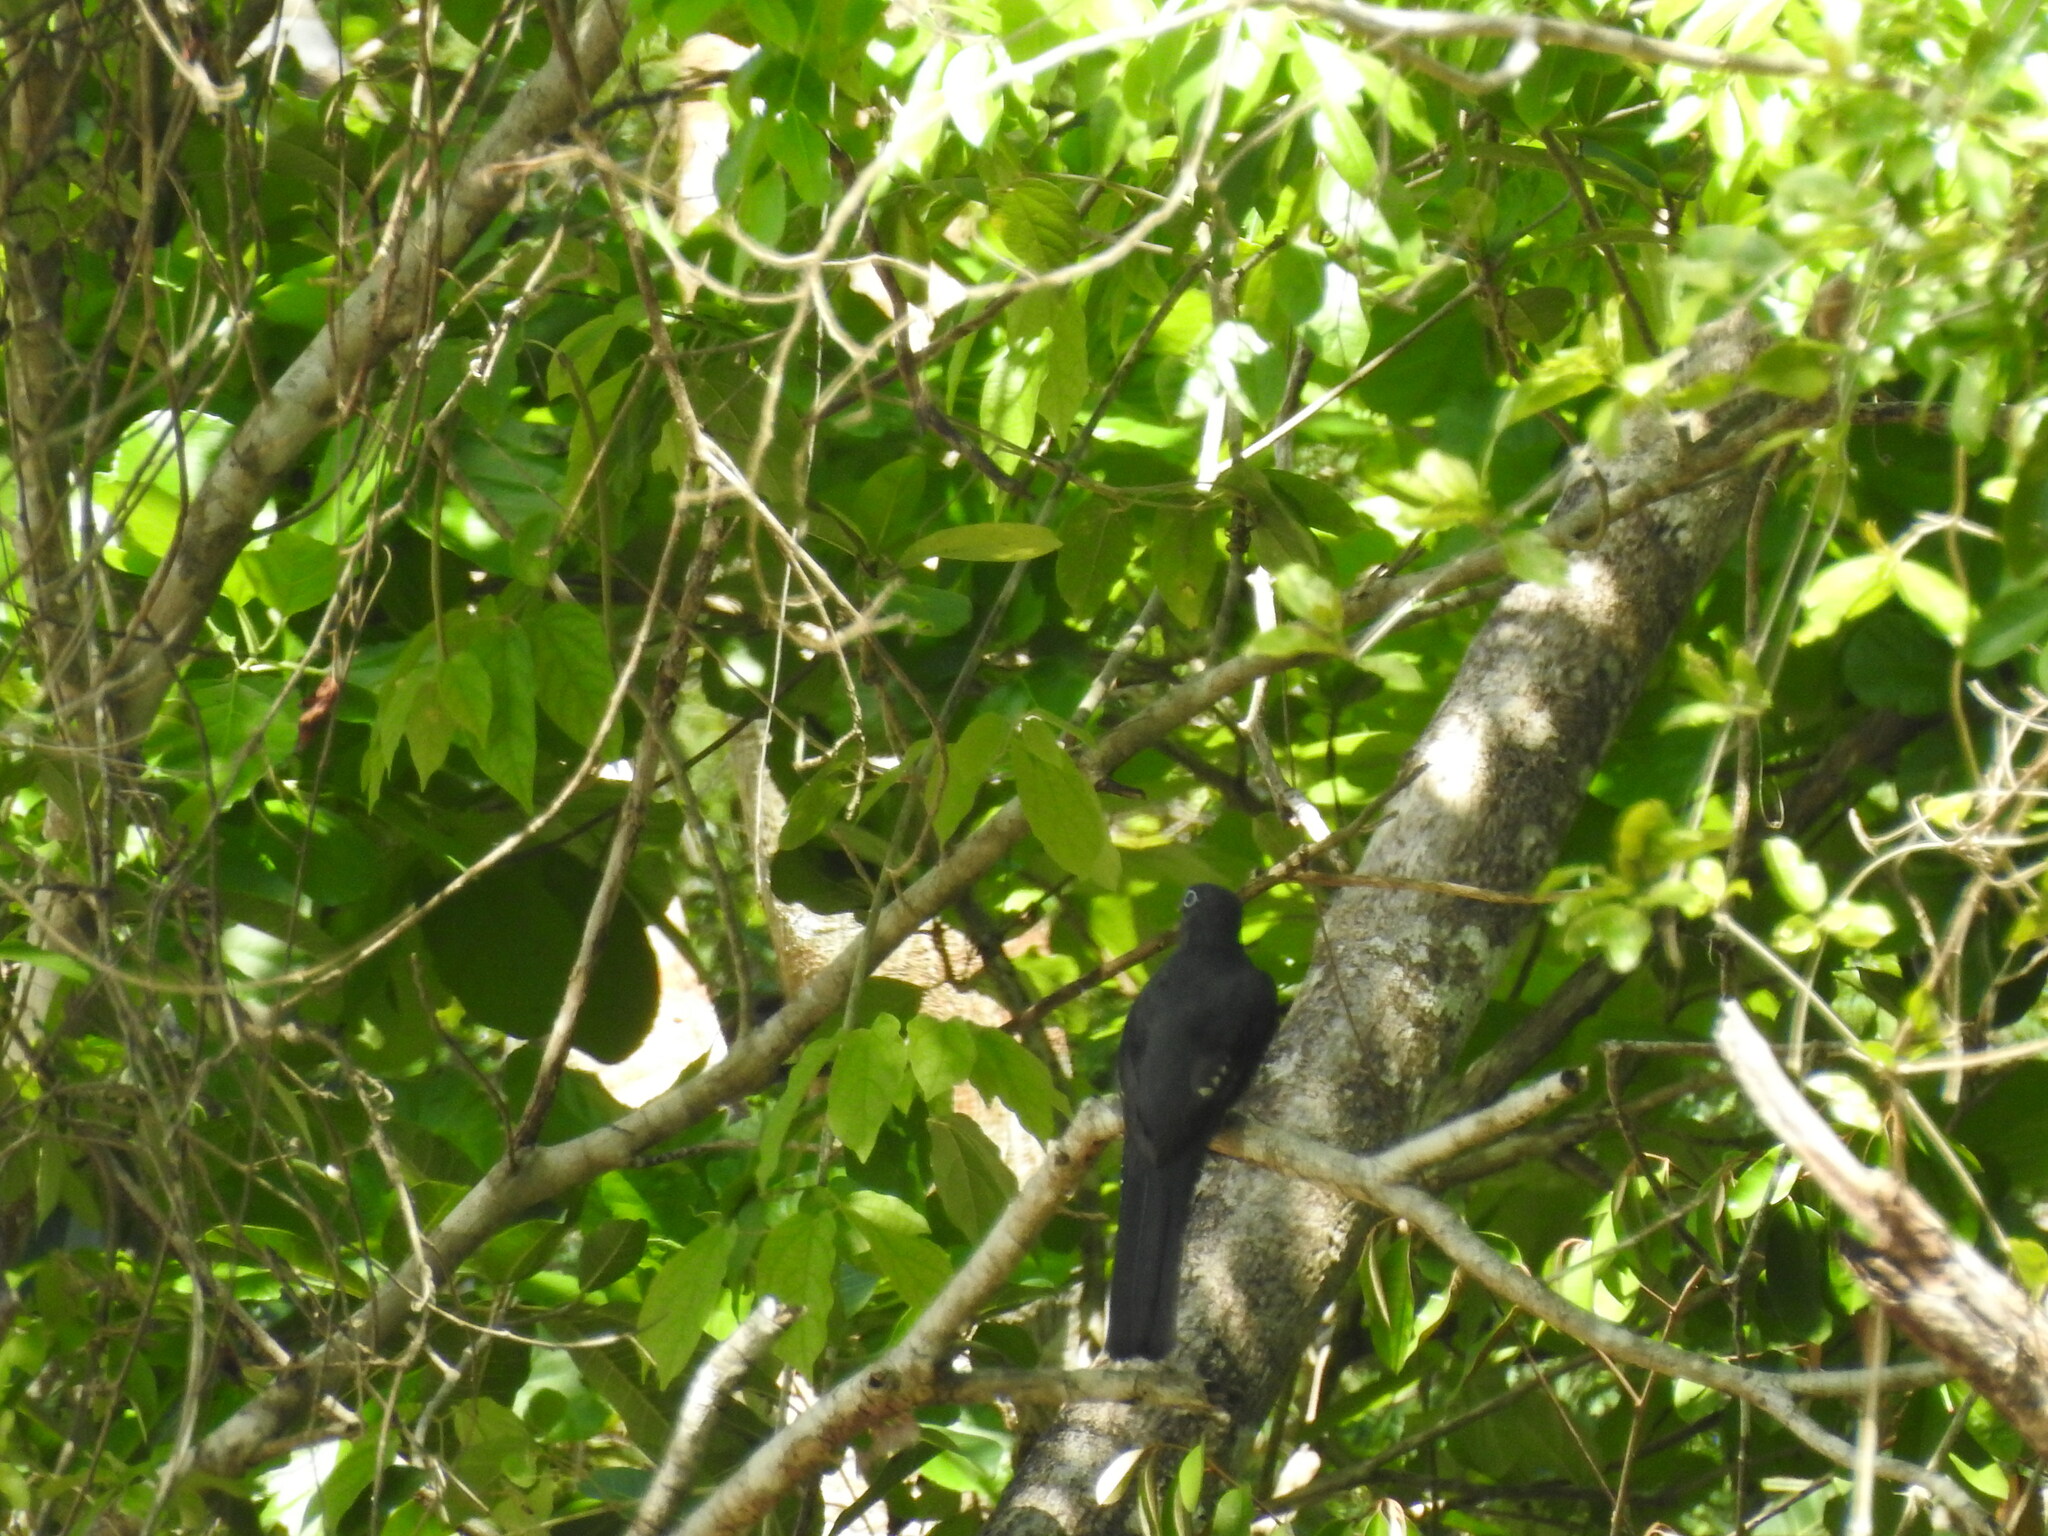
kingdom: Animalia
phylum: Chordata
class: Aves
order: Trogoniformes
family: Trogonidae
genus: Trogon
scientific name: Trogon melanocephalus
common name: Black-headed trogon
